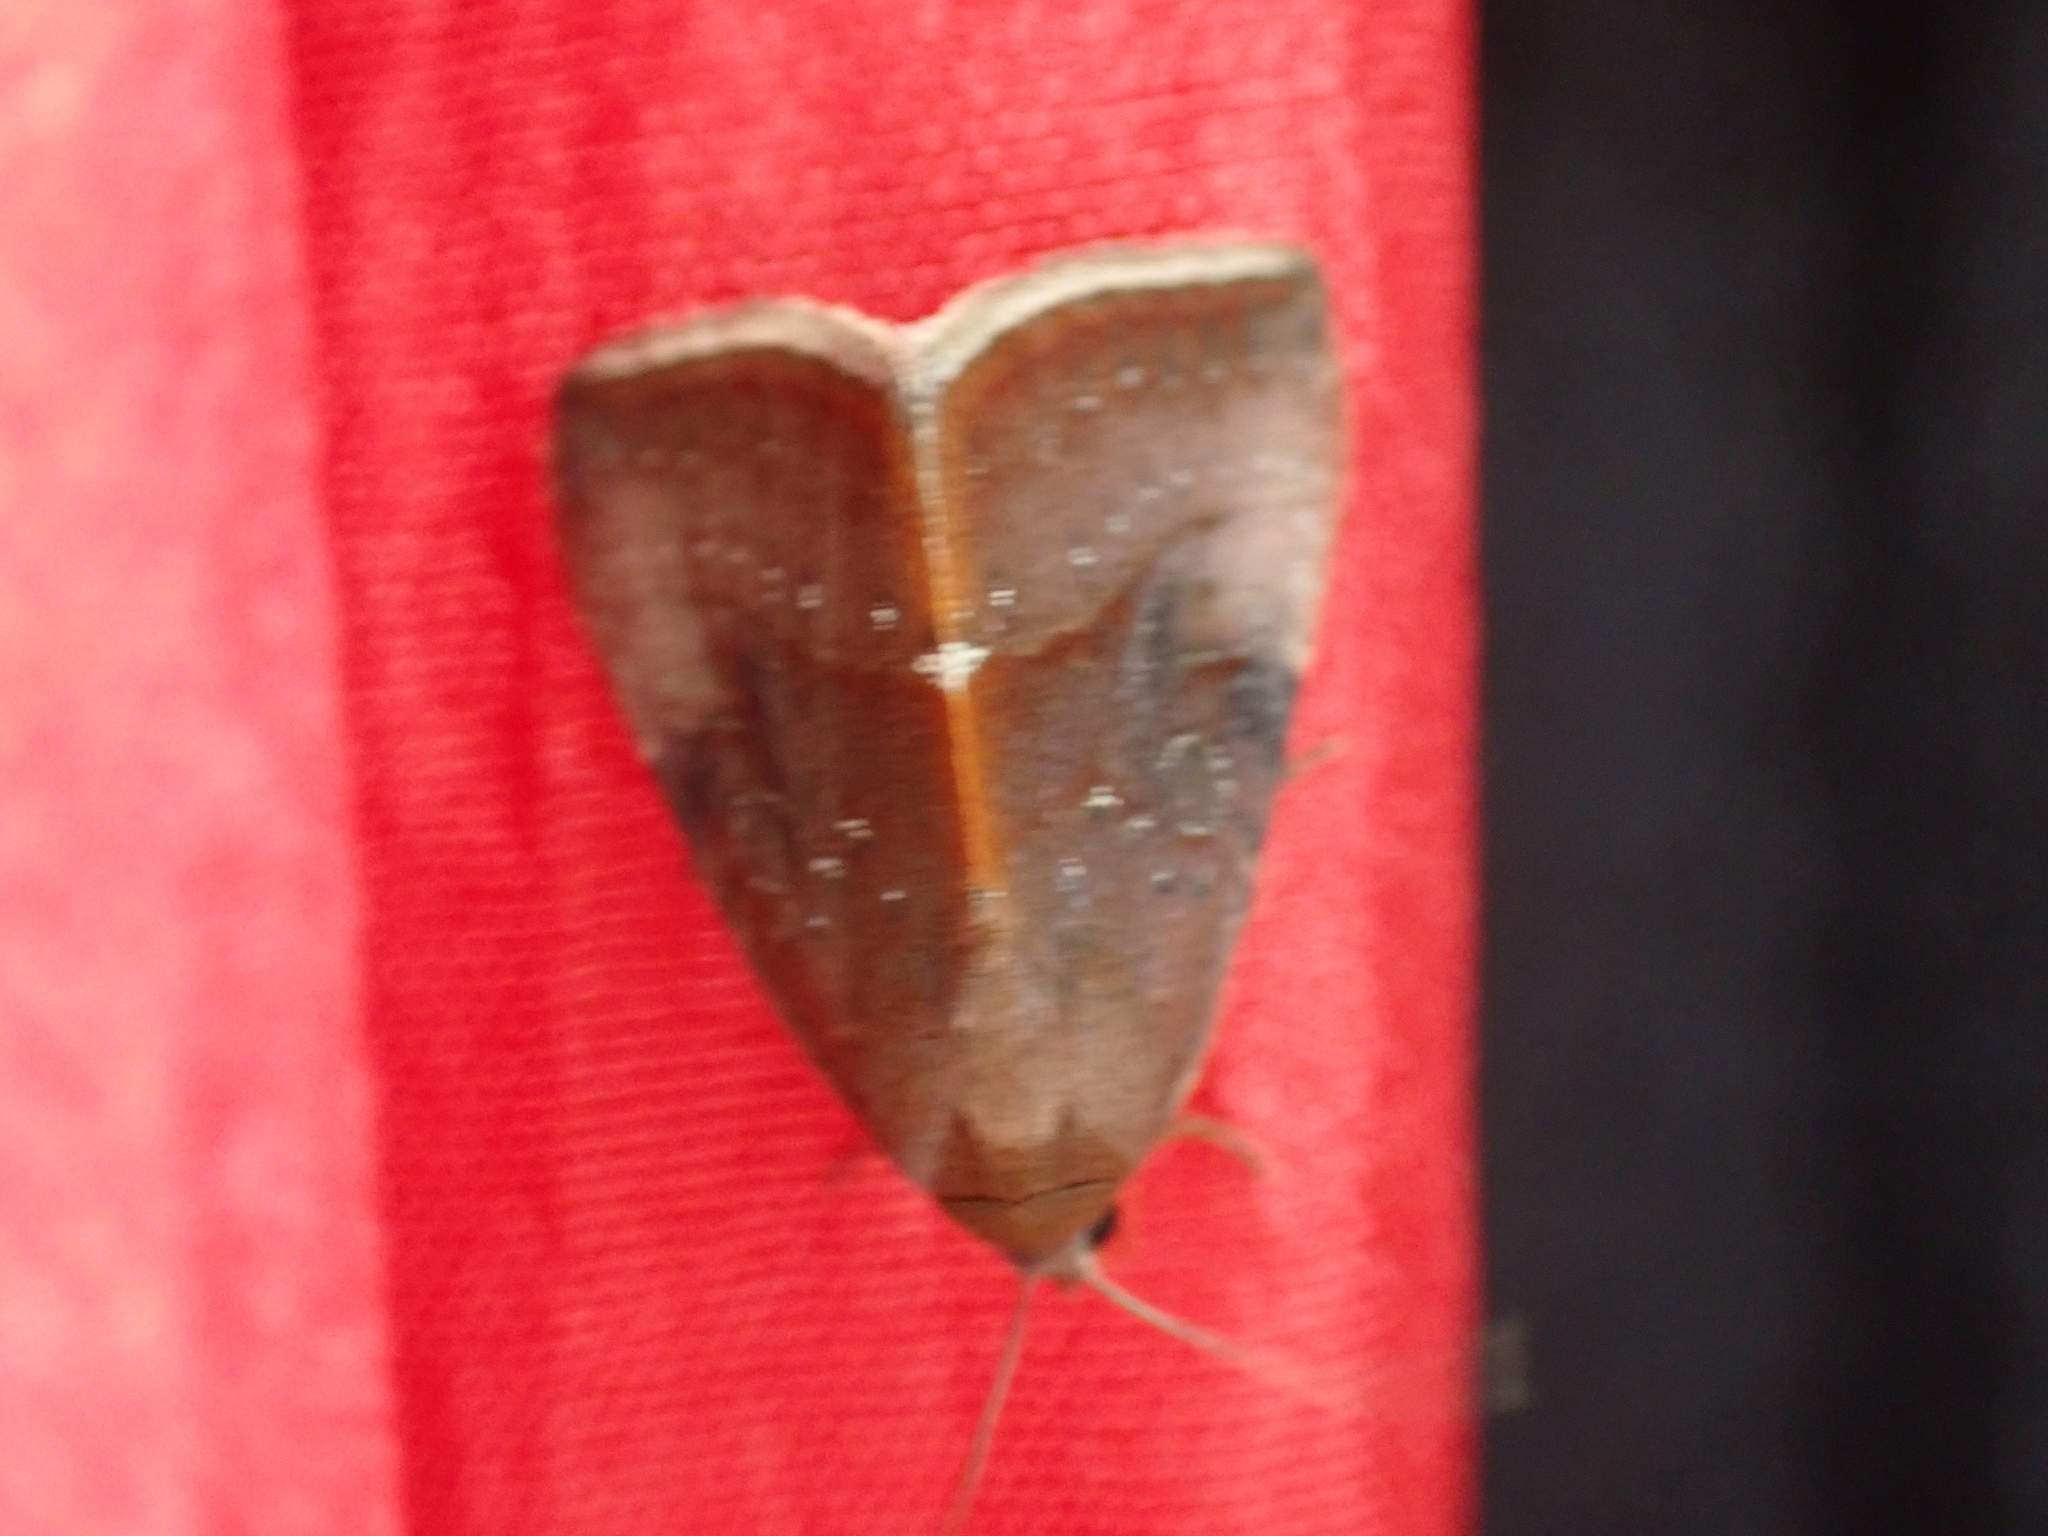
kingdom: Animalia
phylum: Arthropoda
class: Insecta
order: Lepidoptera
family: Noctuidae
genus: Galgula
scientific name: Galgula partita
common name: Wedgeling
